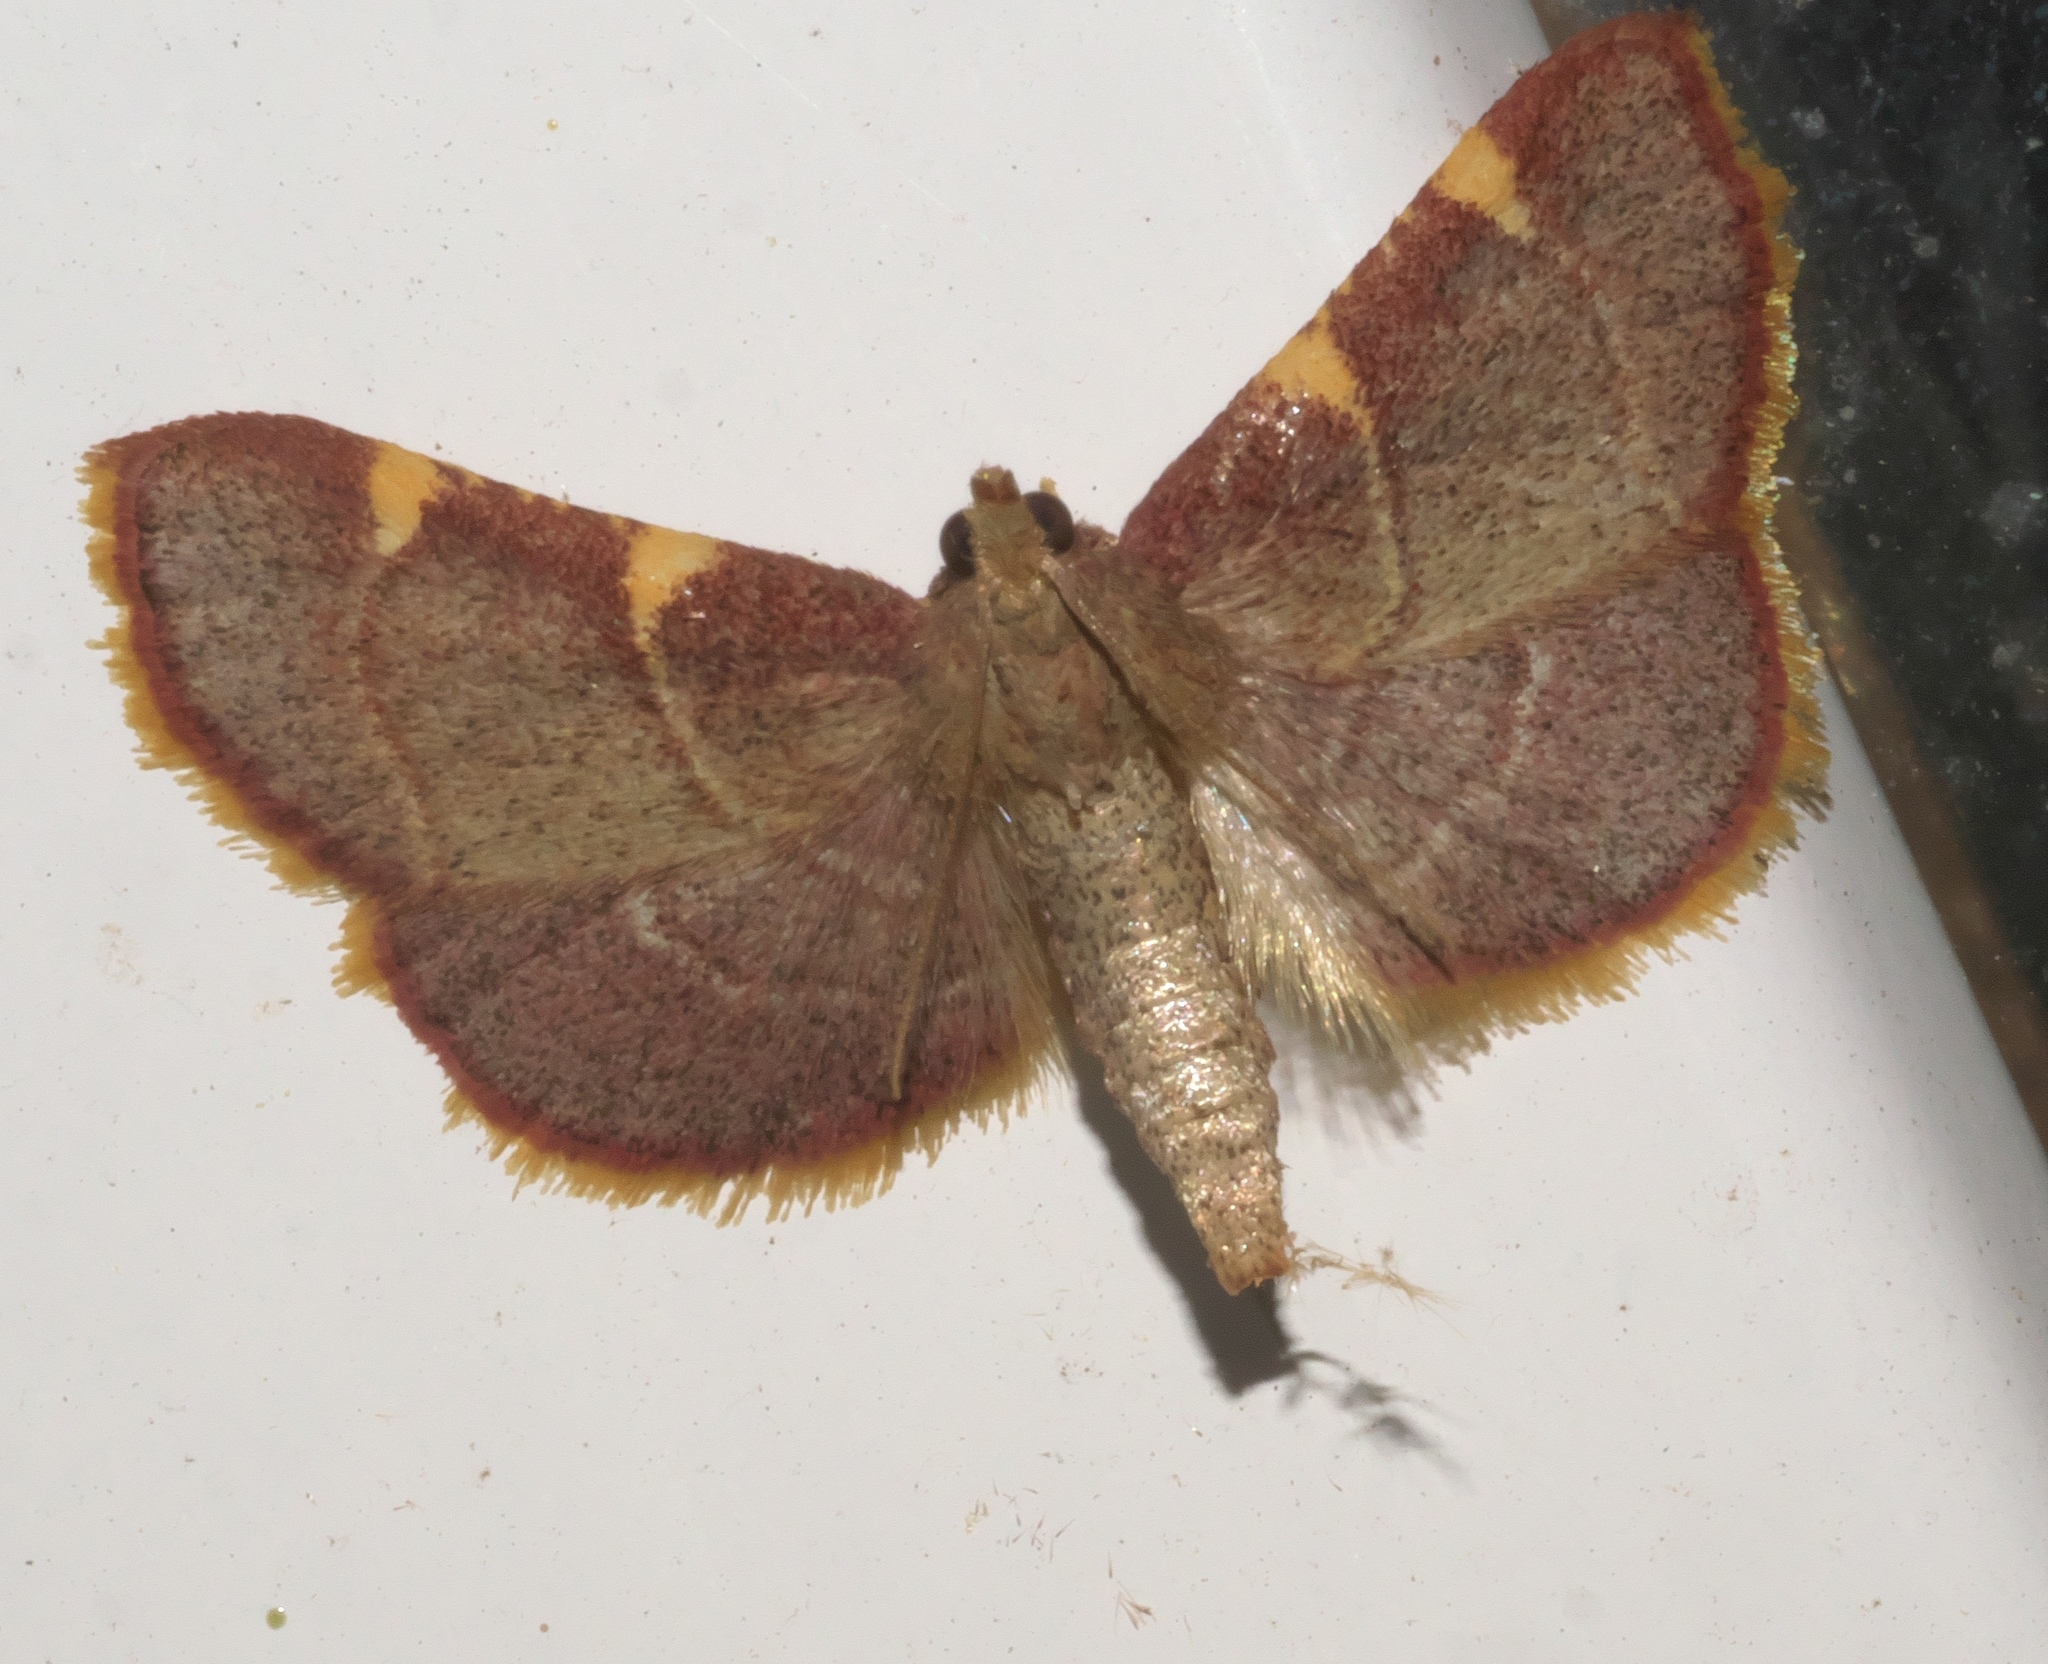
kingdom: Animalia
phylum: Arthropoda
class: Insecta
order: Lepidoptera
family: Pyralidae
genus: Hypsopygia
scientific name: Hypsopygia olinalis
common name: Yellow-fringed dolichomia moth
